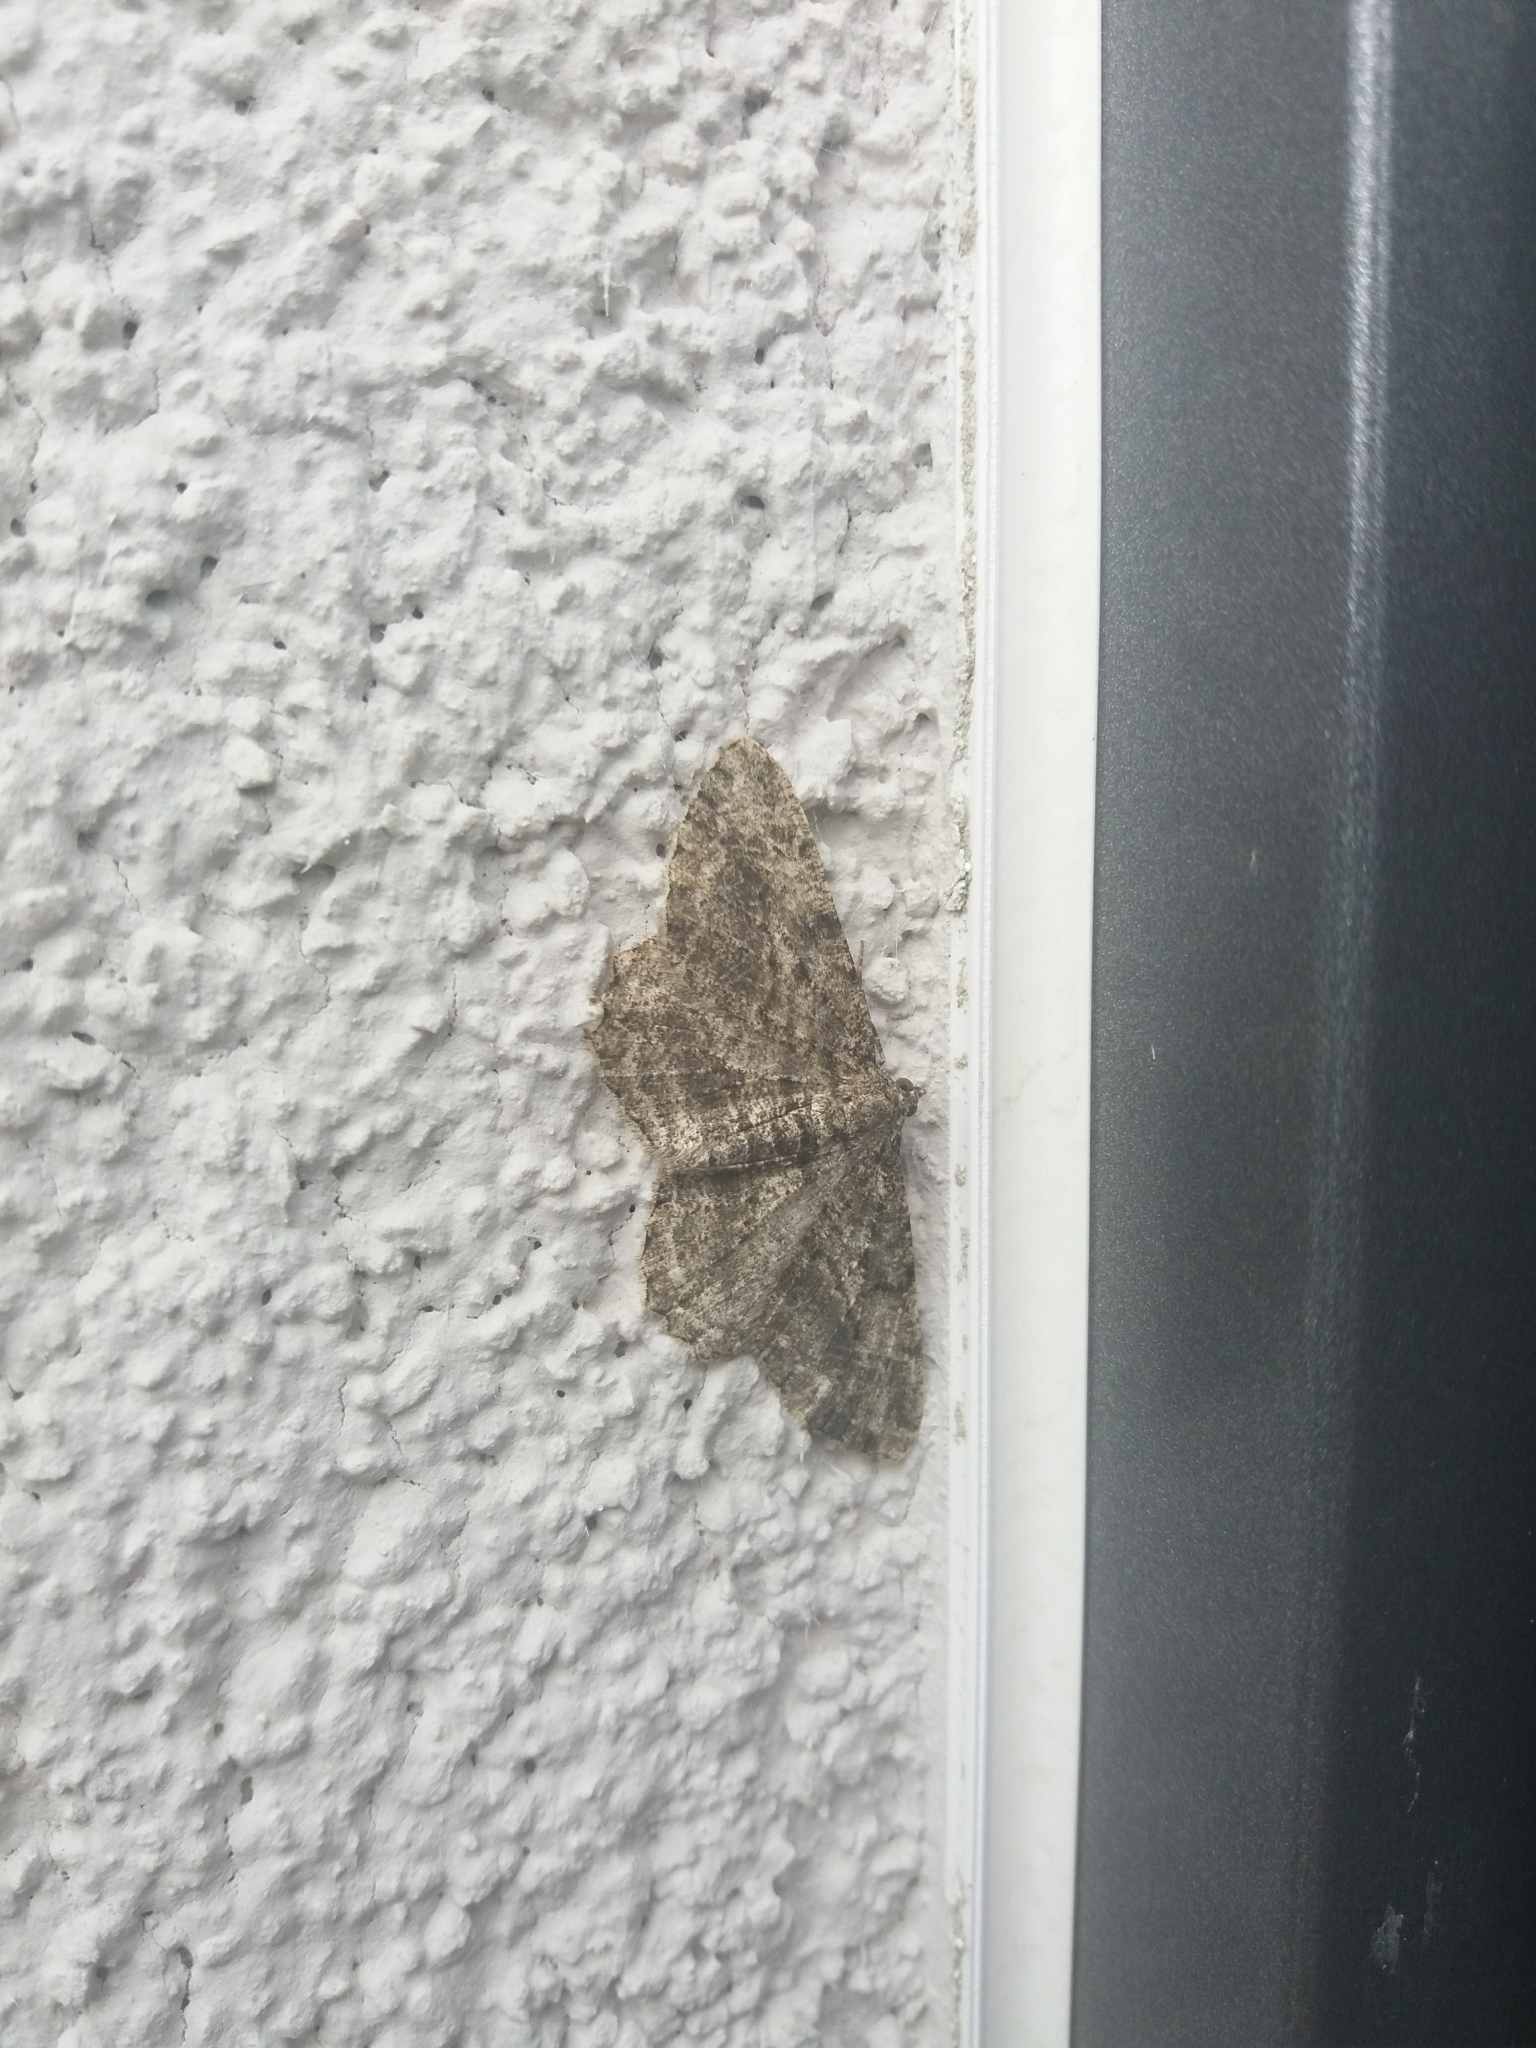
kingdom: Animalia
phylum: Arthropoda
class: Insecta
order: Lepidoptera
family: Geometridae
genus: Peribatodes
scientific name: Peribatodes rhomboidaria
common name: Willow beauty
